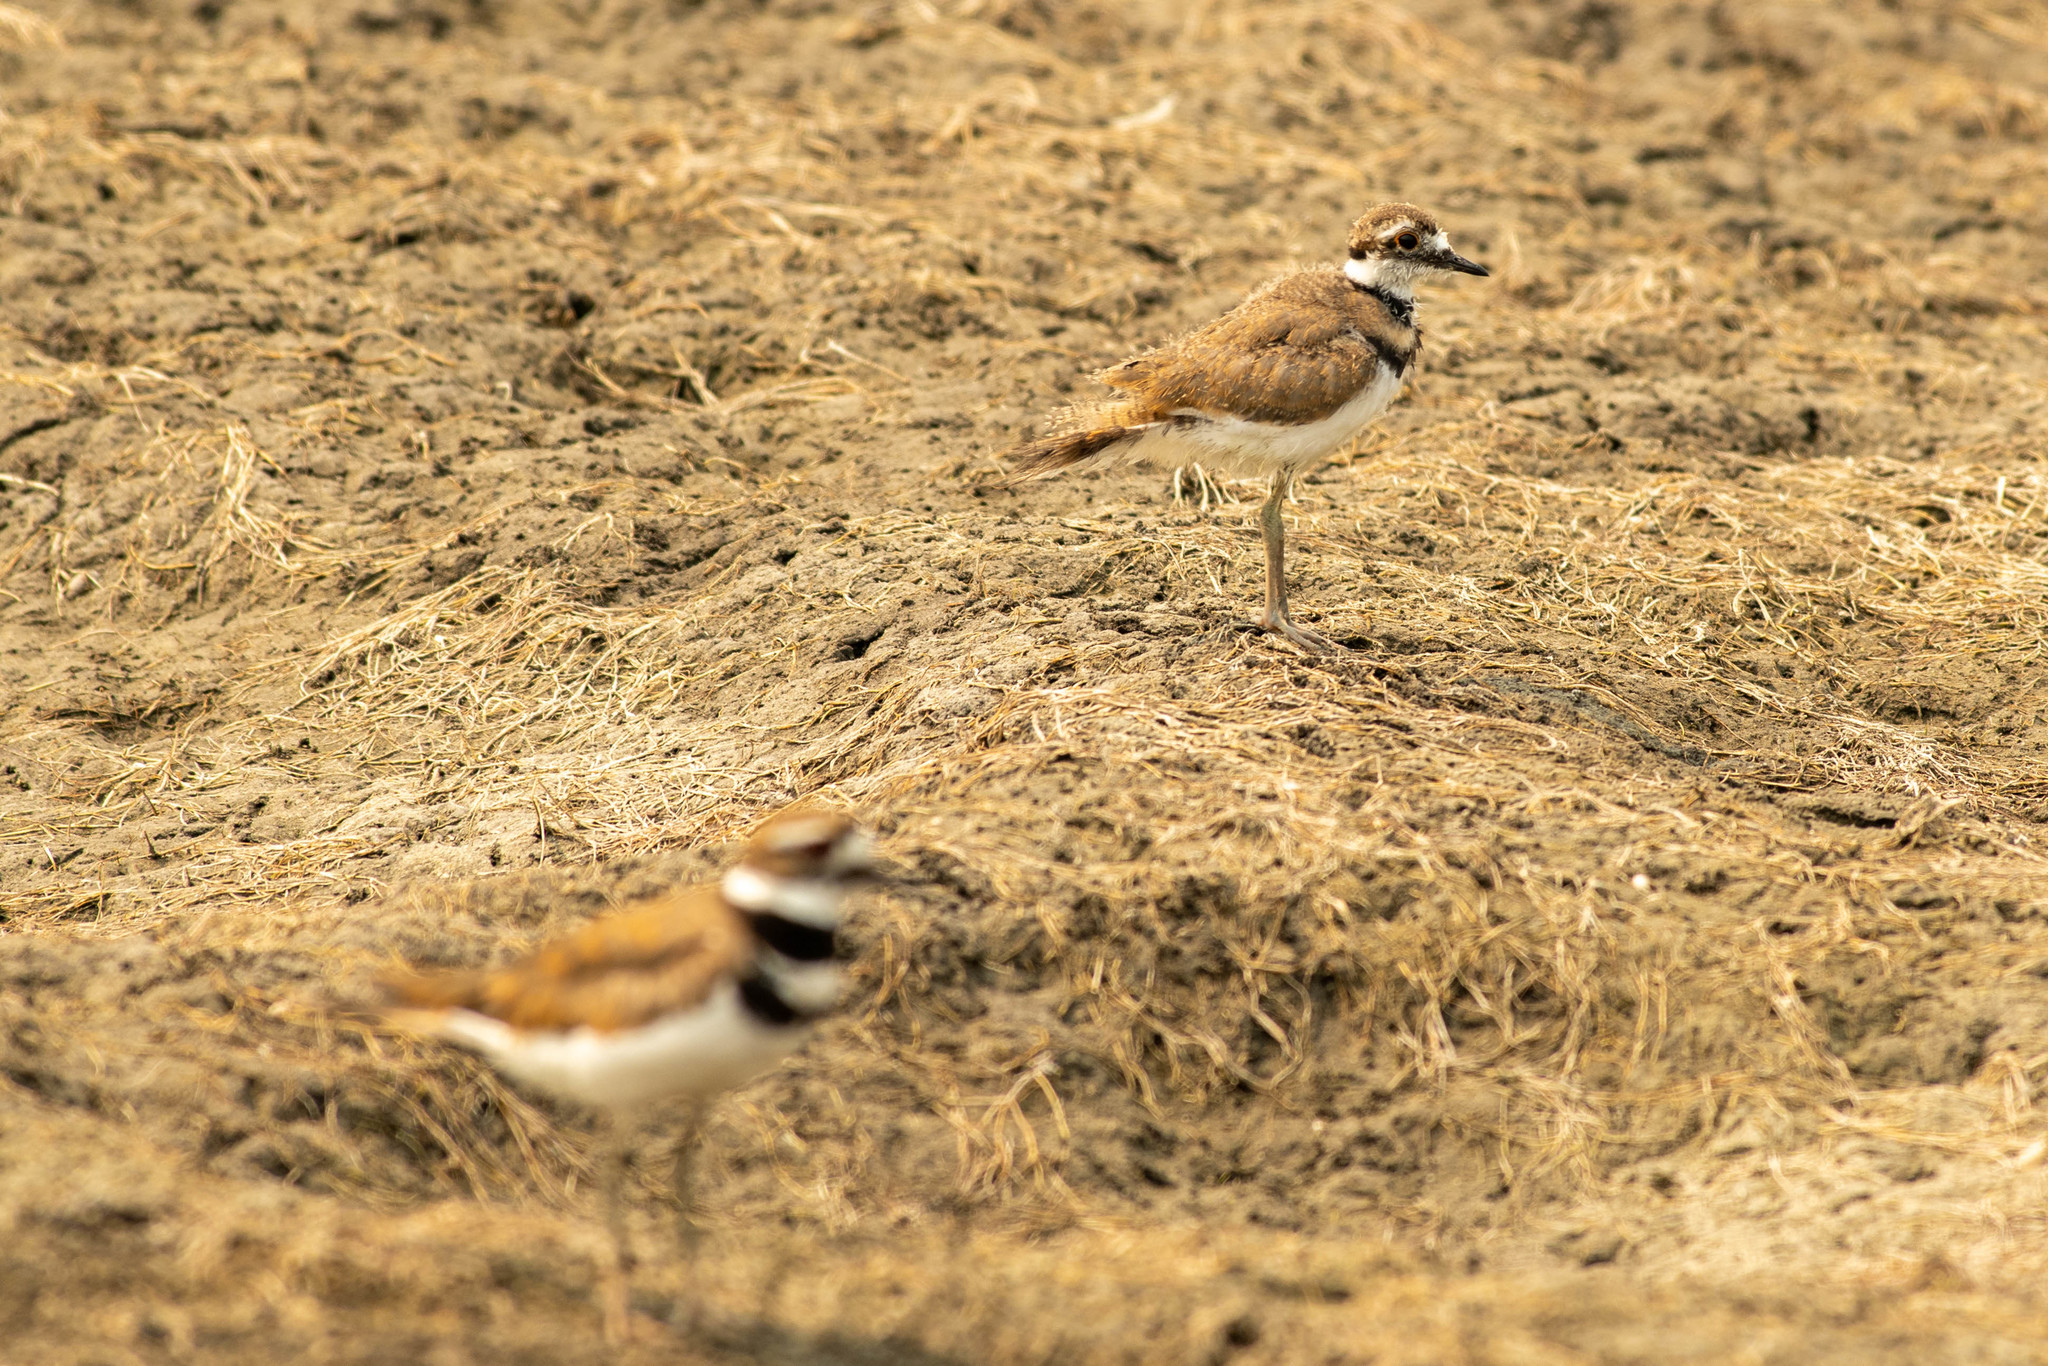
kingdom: Animalia
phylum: Chordata
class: Aves
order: Charadriiformes
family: Charadriidae
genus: Charadrius
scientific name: Charadrius vociferus
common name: Killdeer
